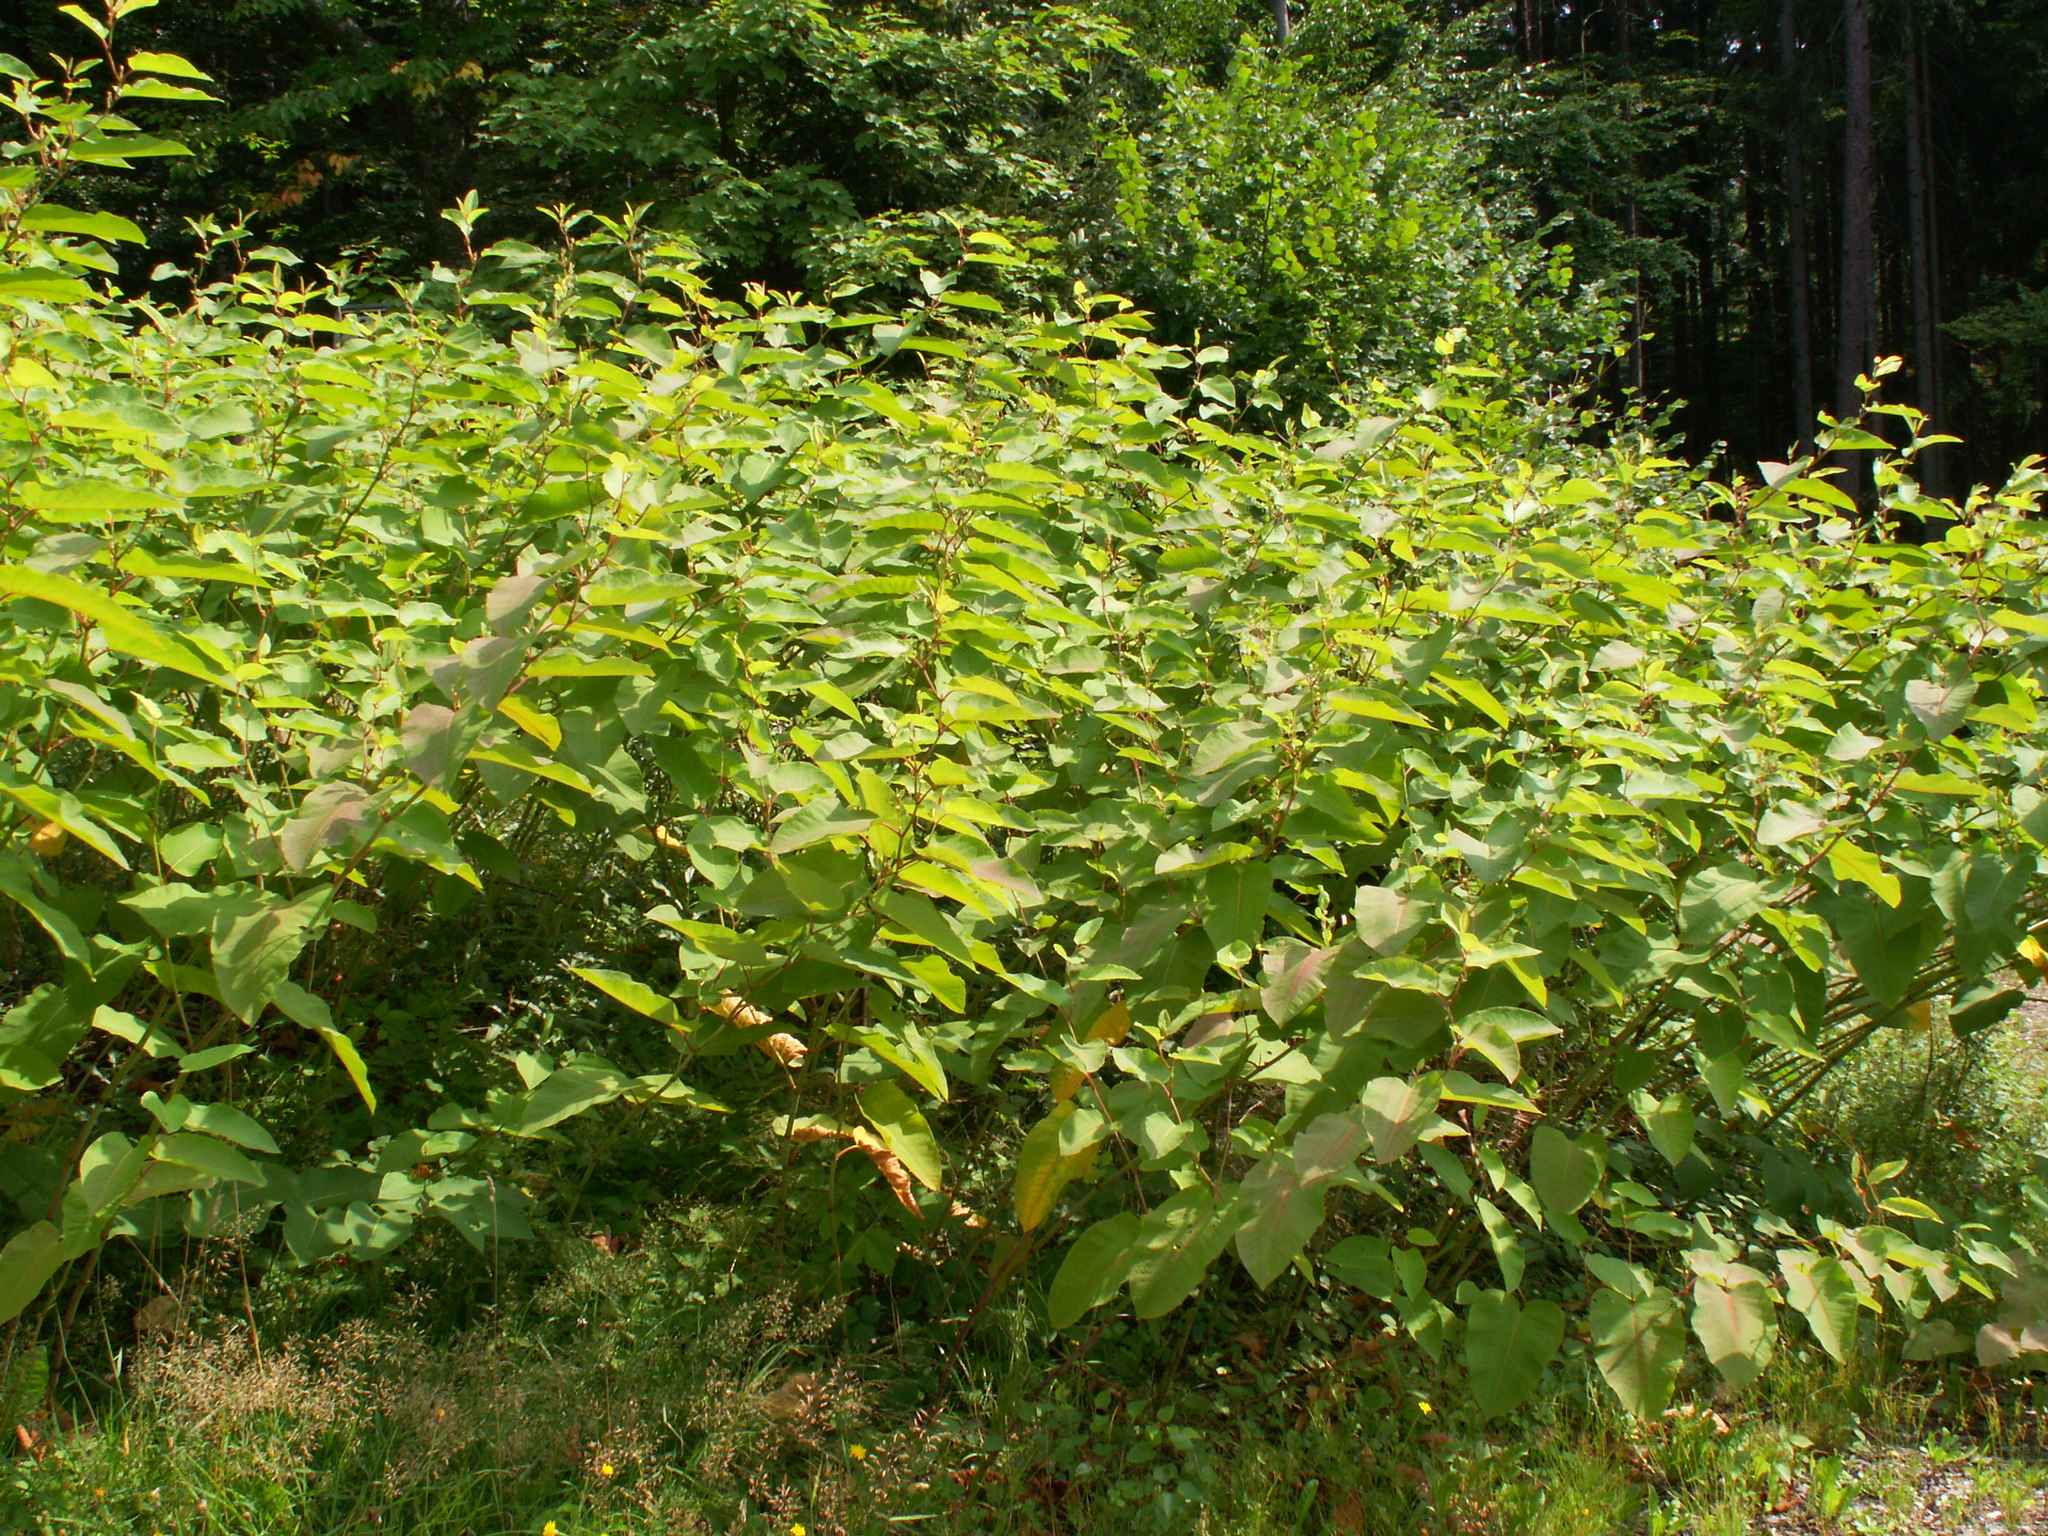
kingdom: Plantae
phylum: Tracheophyta
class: Magnoliopsida
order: Caryophyllales
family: Polygonaceae
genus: Reynoutria
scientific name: Reynoutria sachalinensis
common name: Giant knotweed
